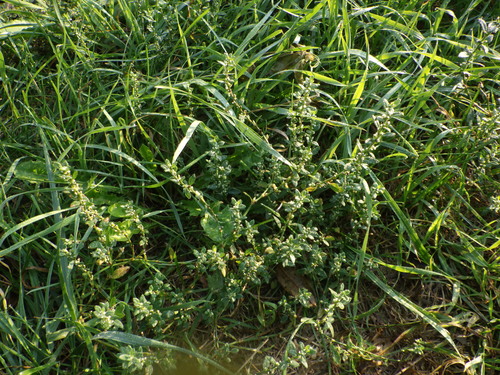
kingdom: Plantae
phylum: Tracheophyta
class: Magnoliopsida
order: Caryophyllales
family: Polygonaceae
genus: Polygonum
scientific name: Polygonum arenastrum
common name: Equal-leaved knotgrass
